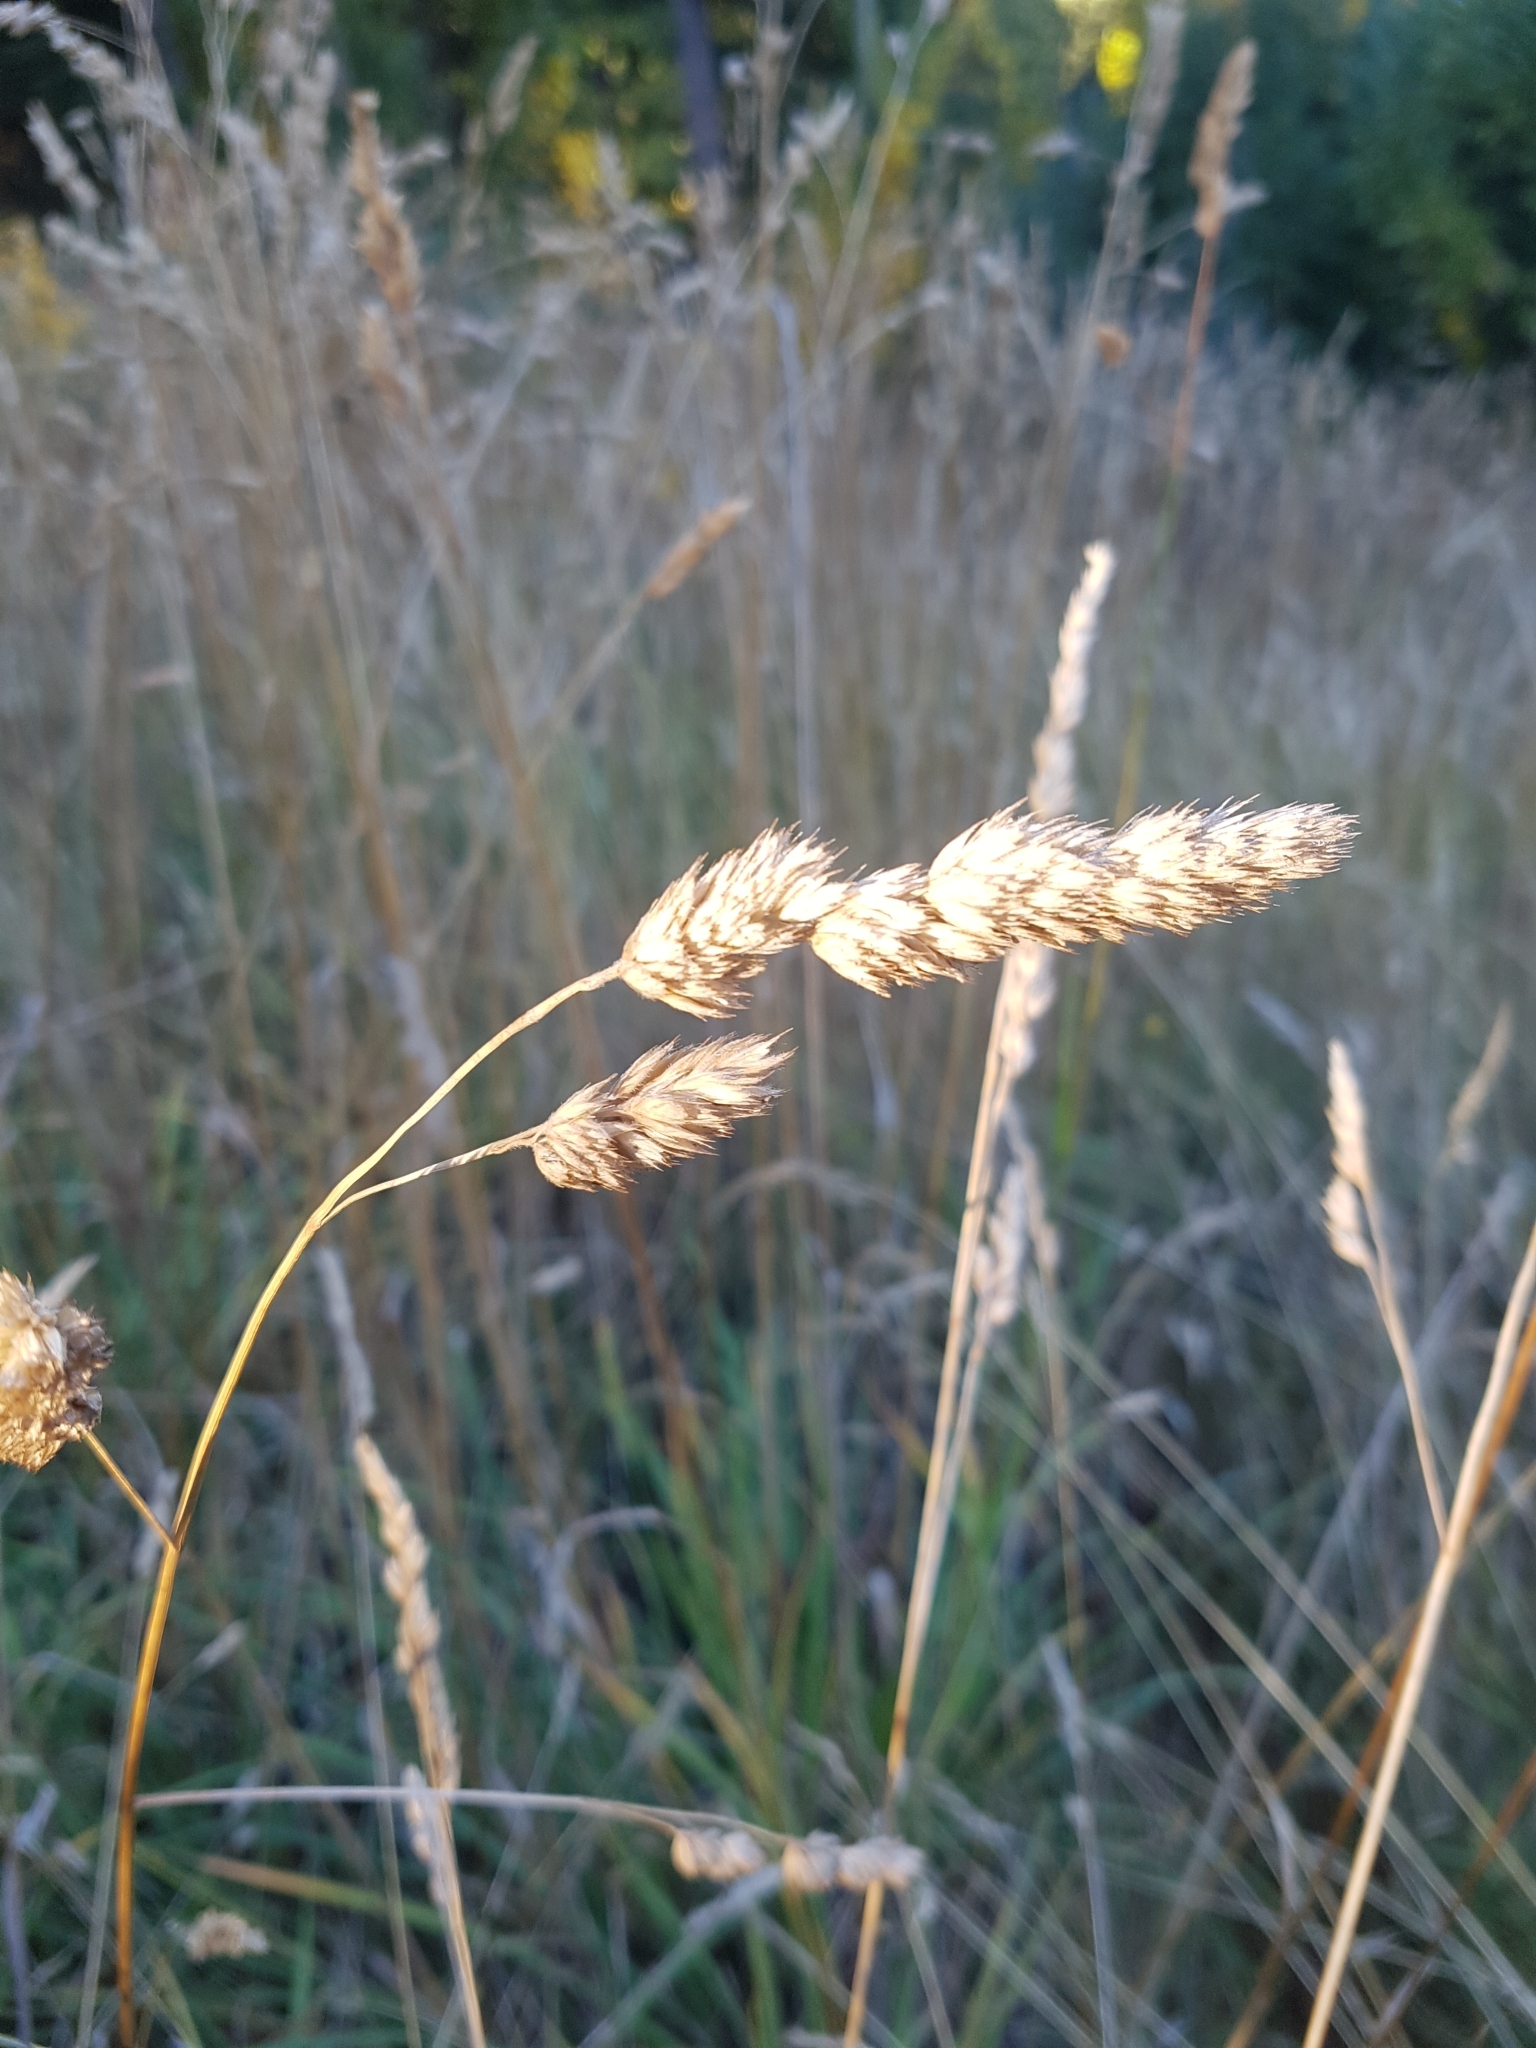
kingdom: Plantae
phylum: Tracheophyta
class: Liliopsida
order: Poales
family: Poaceae
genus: Dactylis
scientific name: Dactylis glomerata
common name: Orchardgrass
